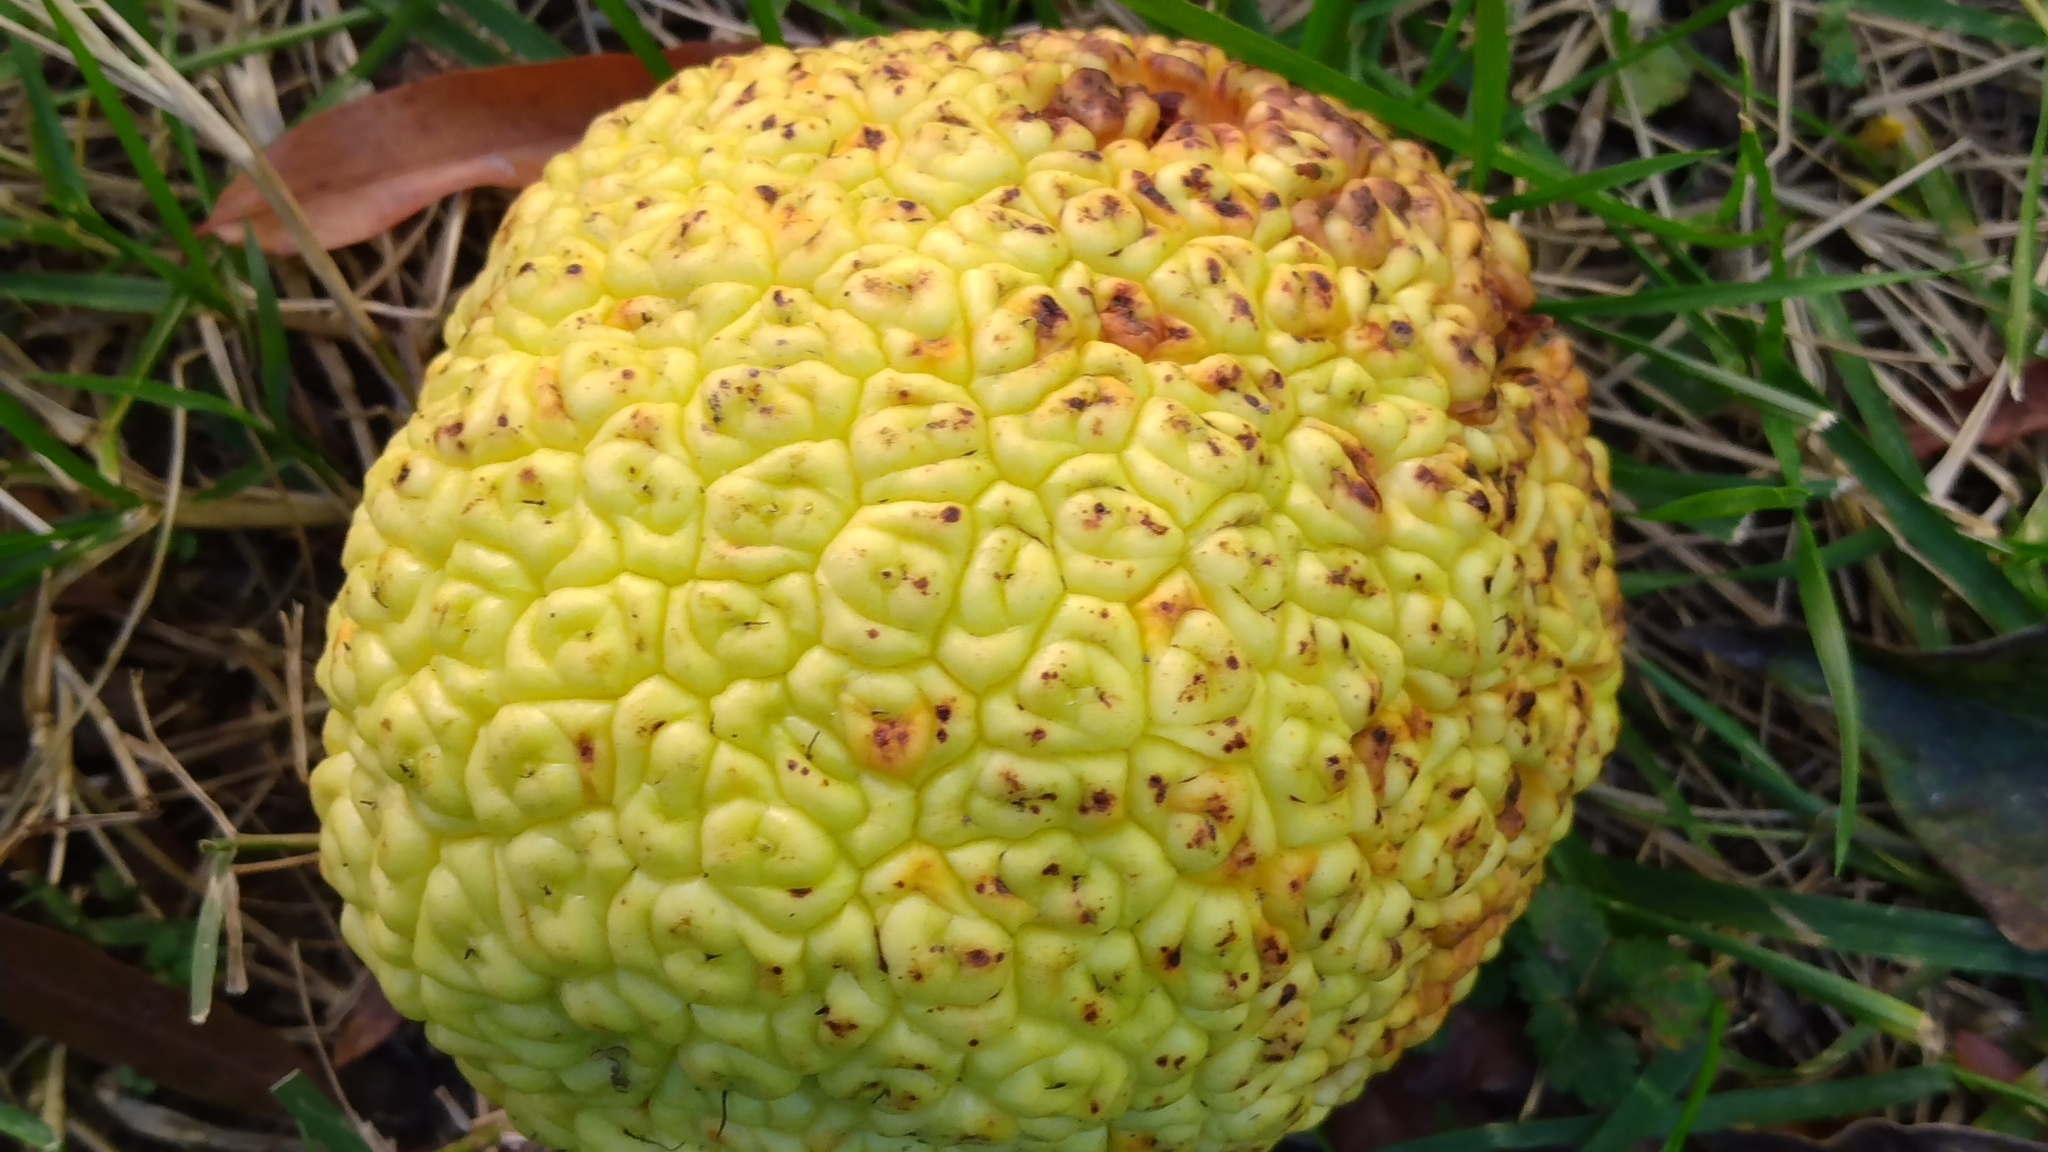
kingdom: Plantae
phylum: Tracheophyta
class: Magnoliopsida
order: Rosales
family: Moraceae
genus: Maclura
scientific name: Maclura pomifera
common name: Osage-orange
